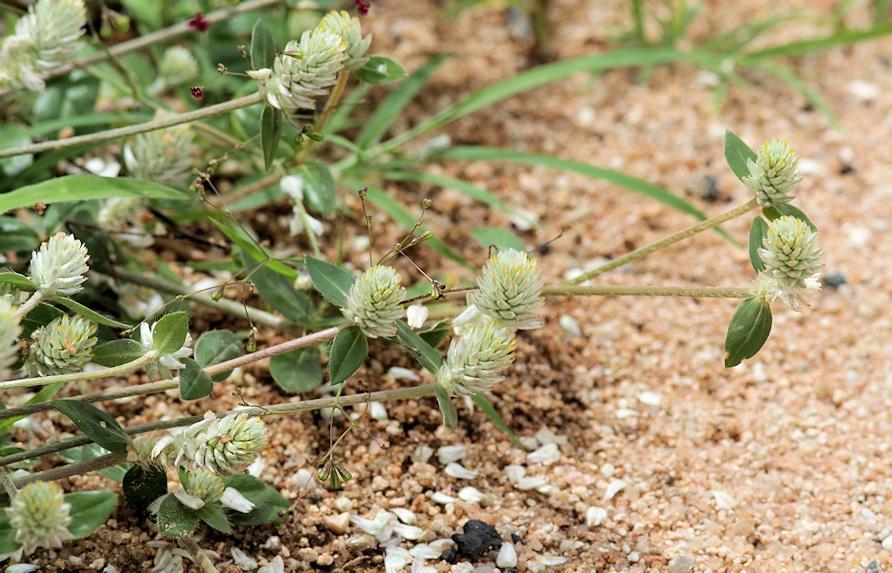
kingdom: Plantae
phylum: Tracheophyta
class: Magnoliopsida
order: Caryophyllales
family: Amaranthaceae
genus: Gomphrena
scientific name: Gomphrena celosioides
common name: Gomphrena-weed
